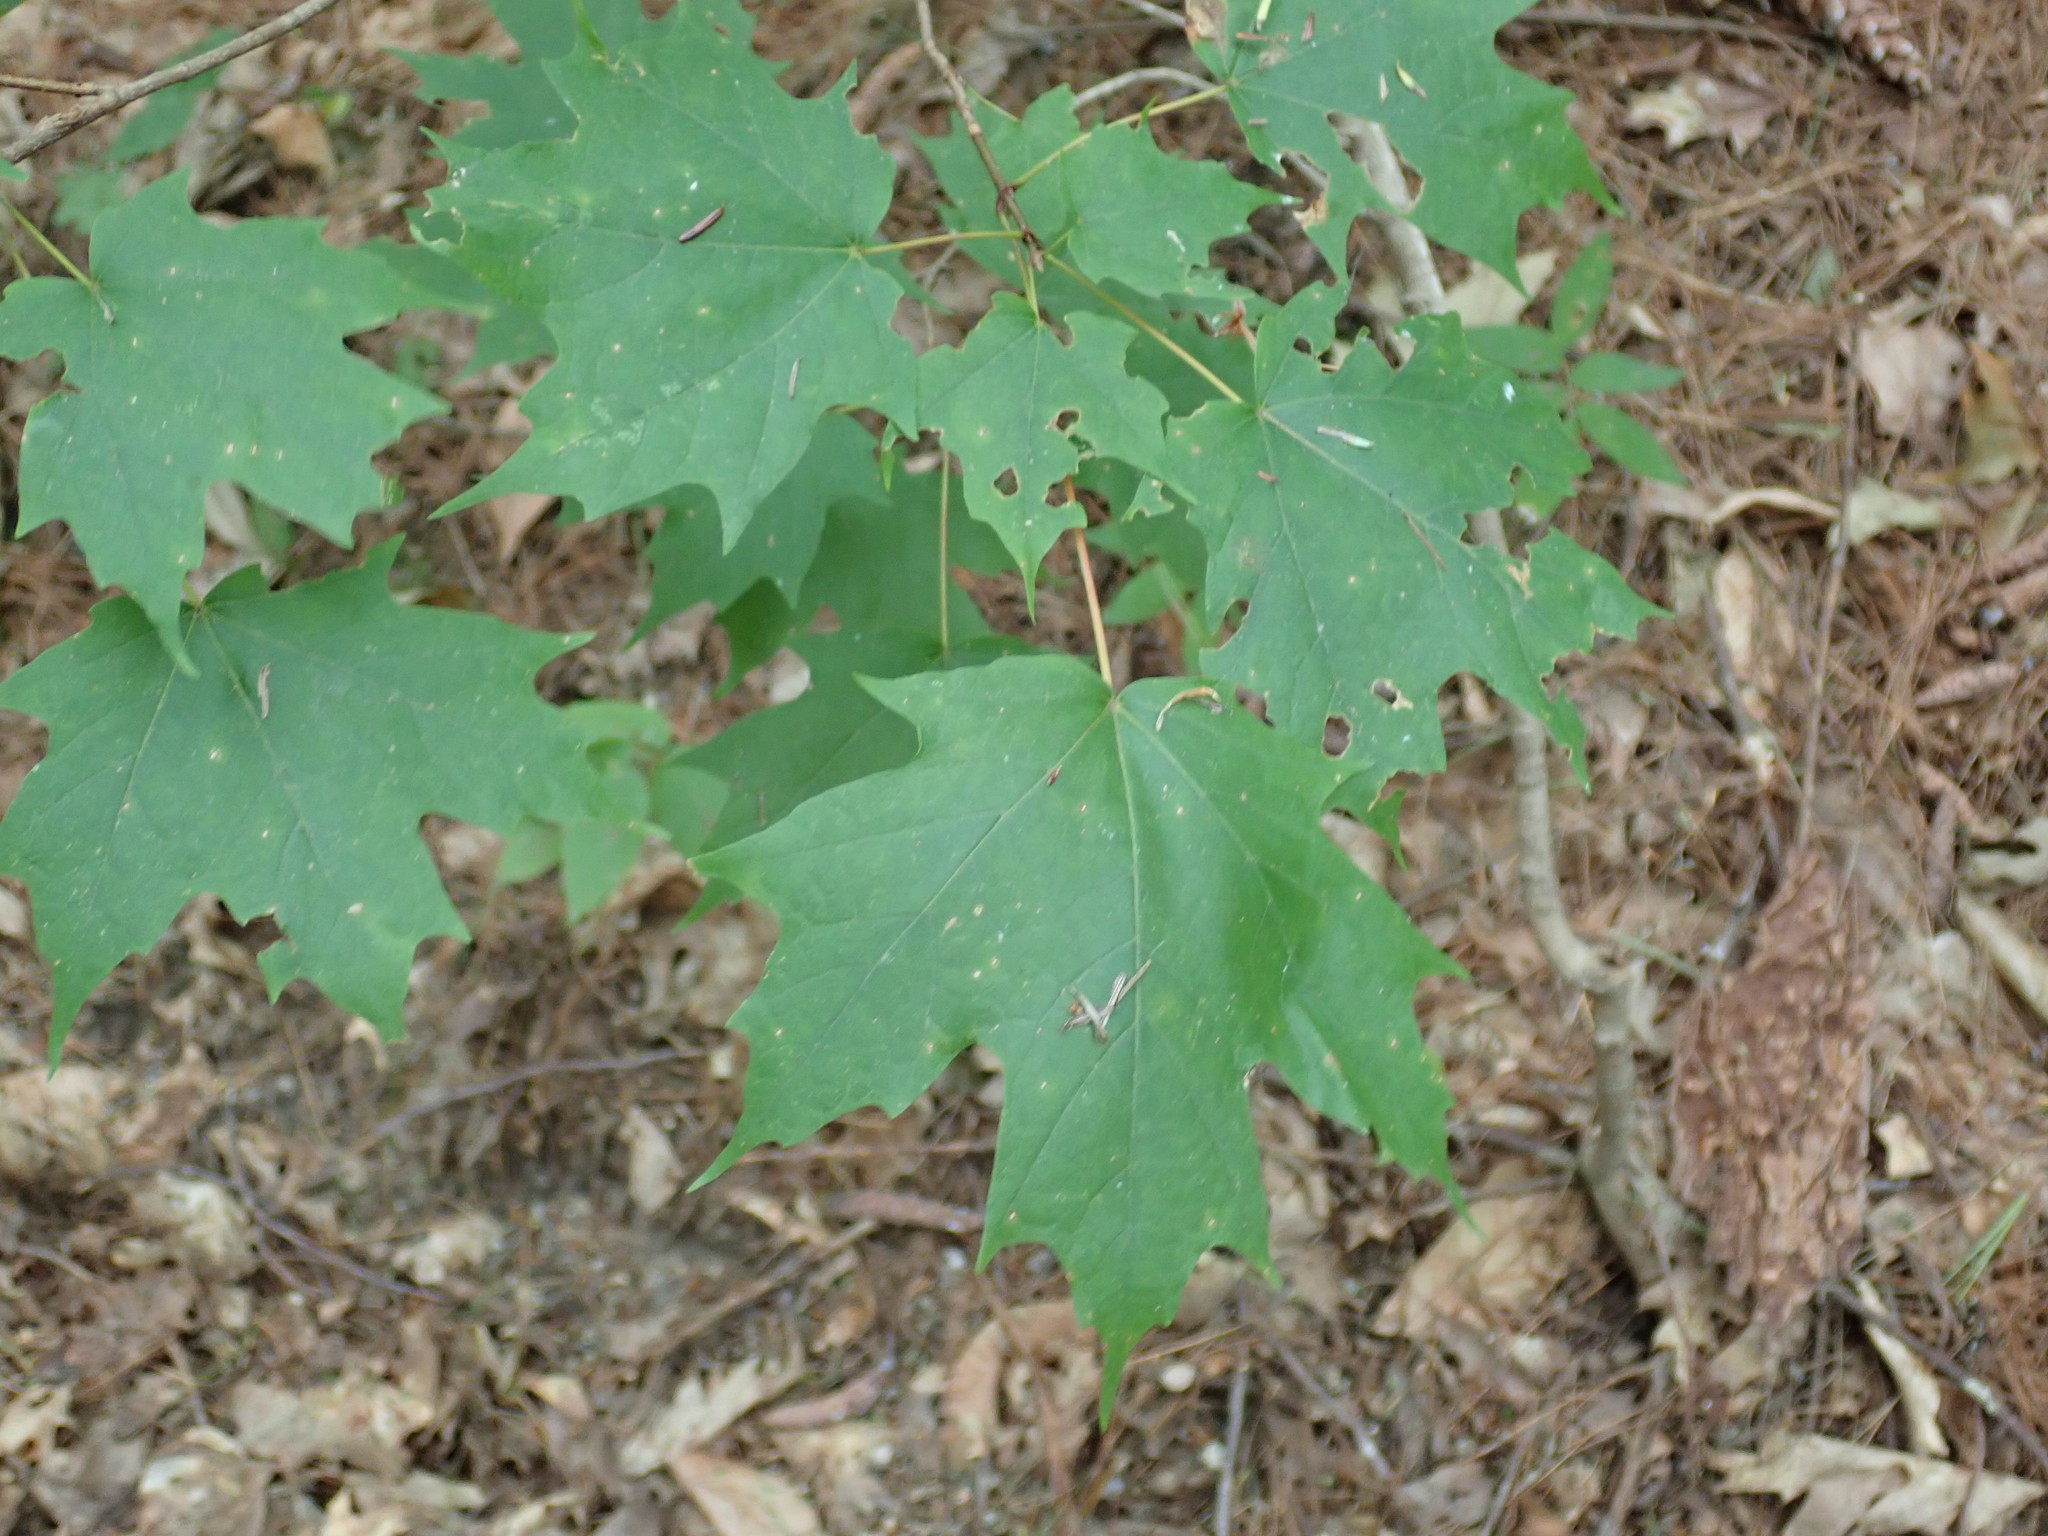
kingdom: Plantae
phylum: Tracheophyta
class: Magnoliopsida
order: Sapindales
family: Sapindaceae
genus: Acer
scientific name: Acer saccharum
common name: Sugar maple
